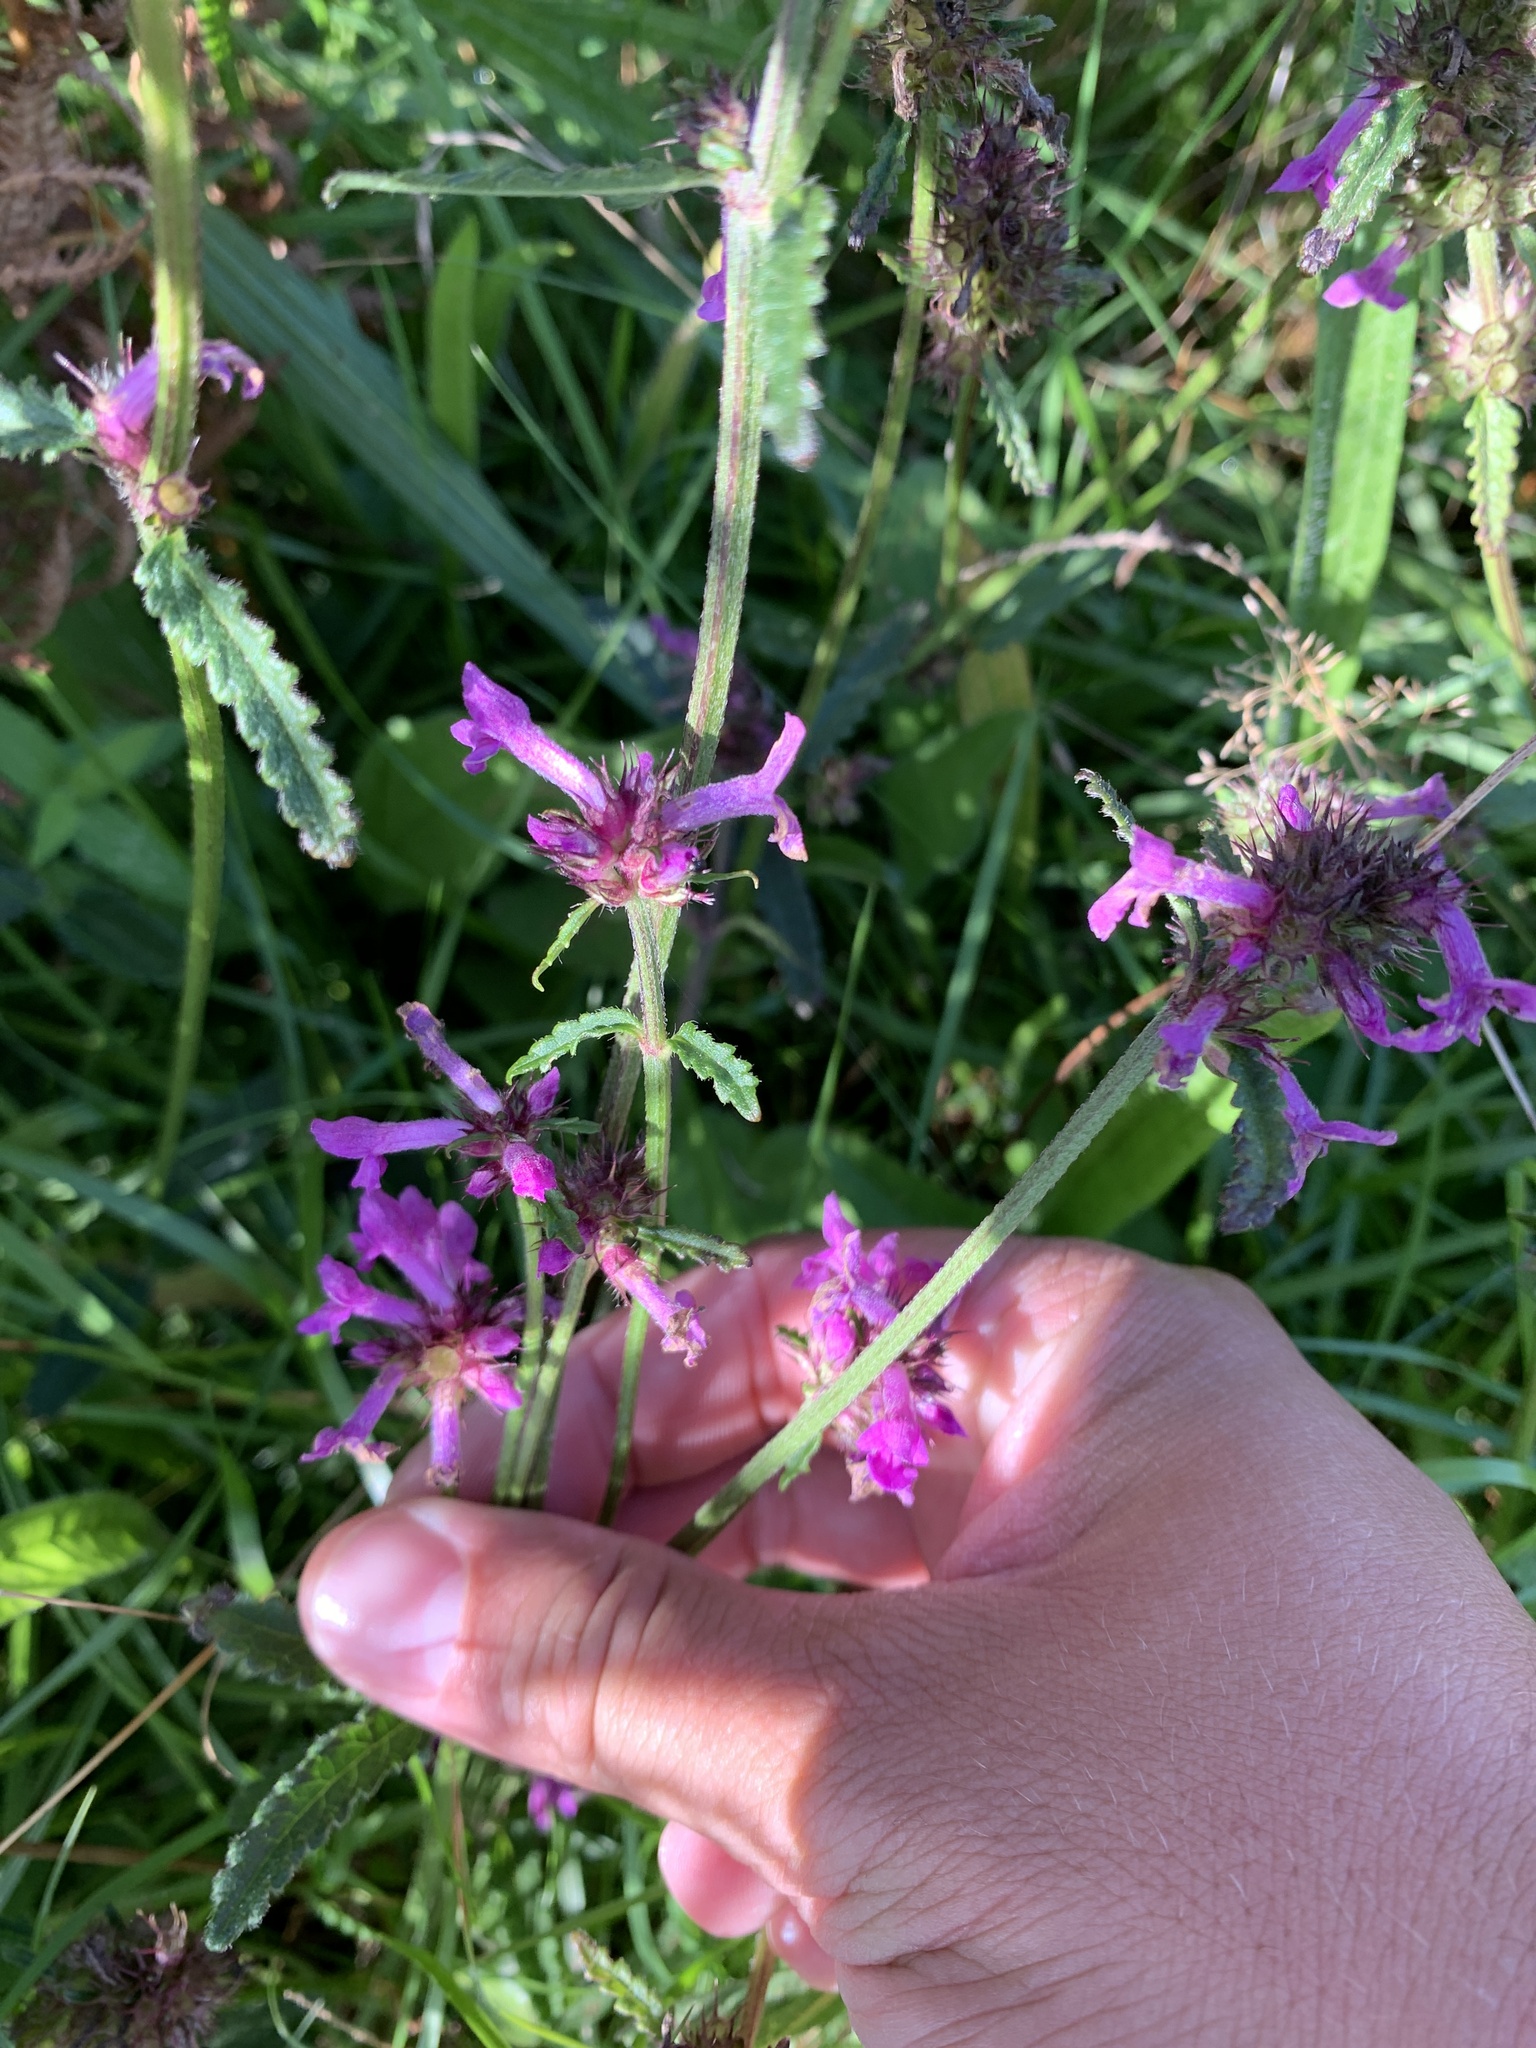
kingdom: Plantae
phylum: Tracheophyta
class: Magnoliopsida
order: Lamiales
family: Lamiaceae
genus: Betonica
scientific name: Betonica officinalis
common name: Bishop's-wort
